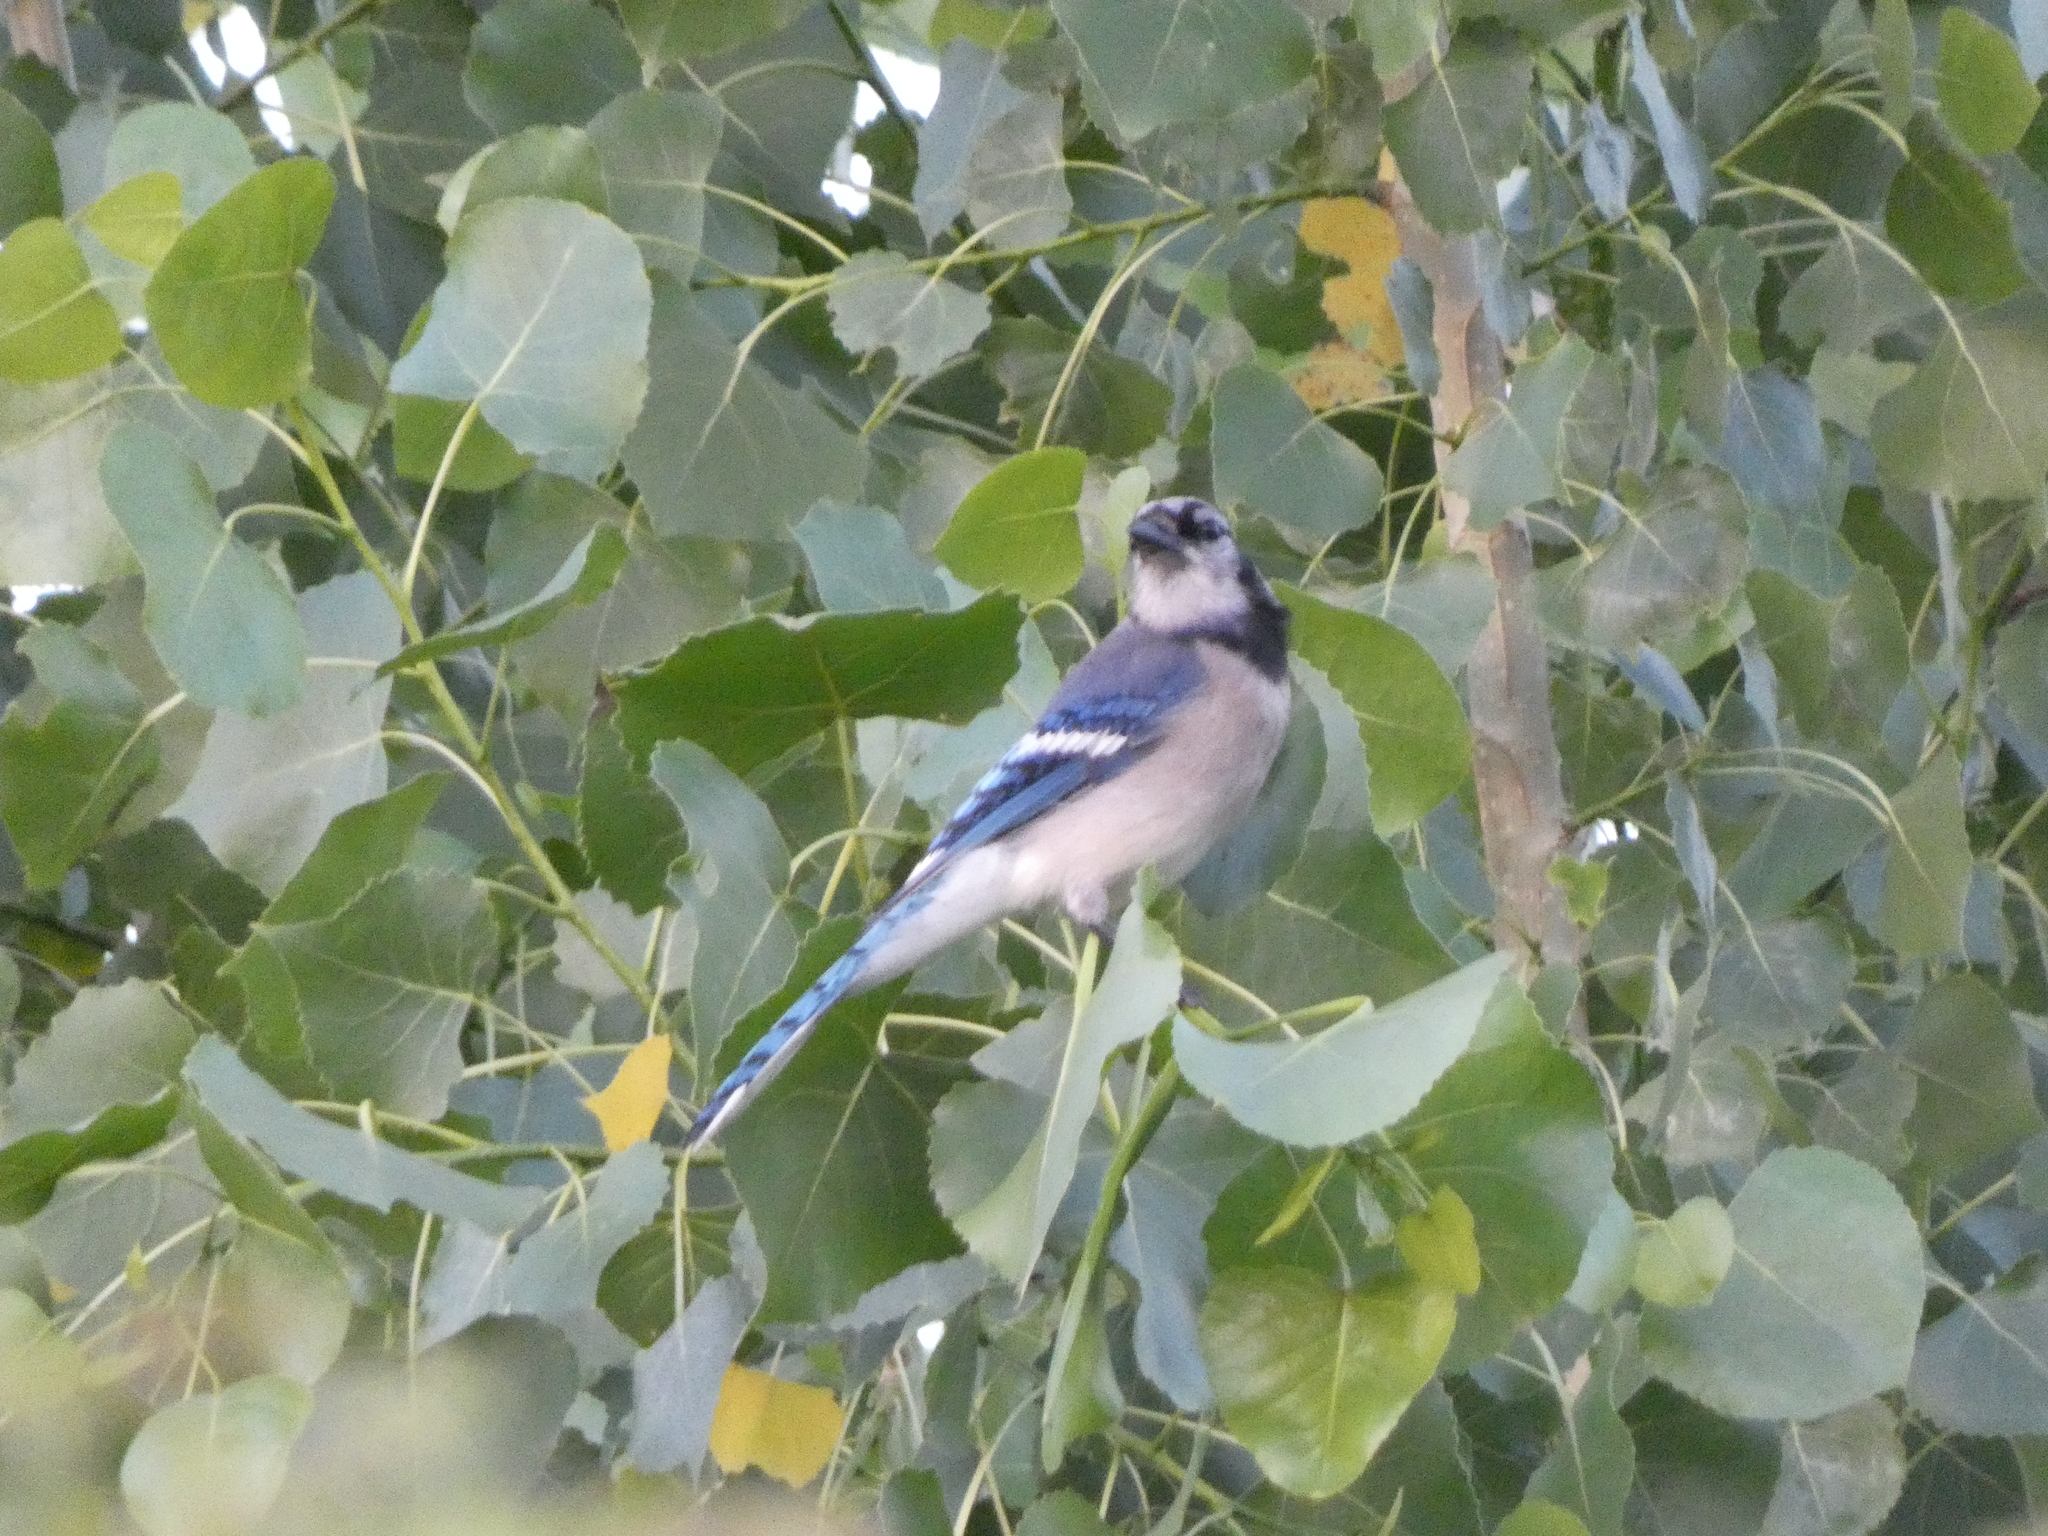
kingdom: Animalia
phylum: Chordata
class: Aves
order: Passeriformes
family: Corvidae
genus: Cyanocitta
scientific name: Cyanocitta cristata
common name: Blue jay
